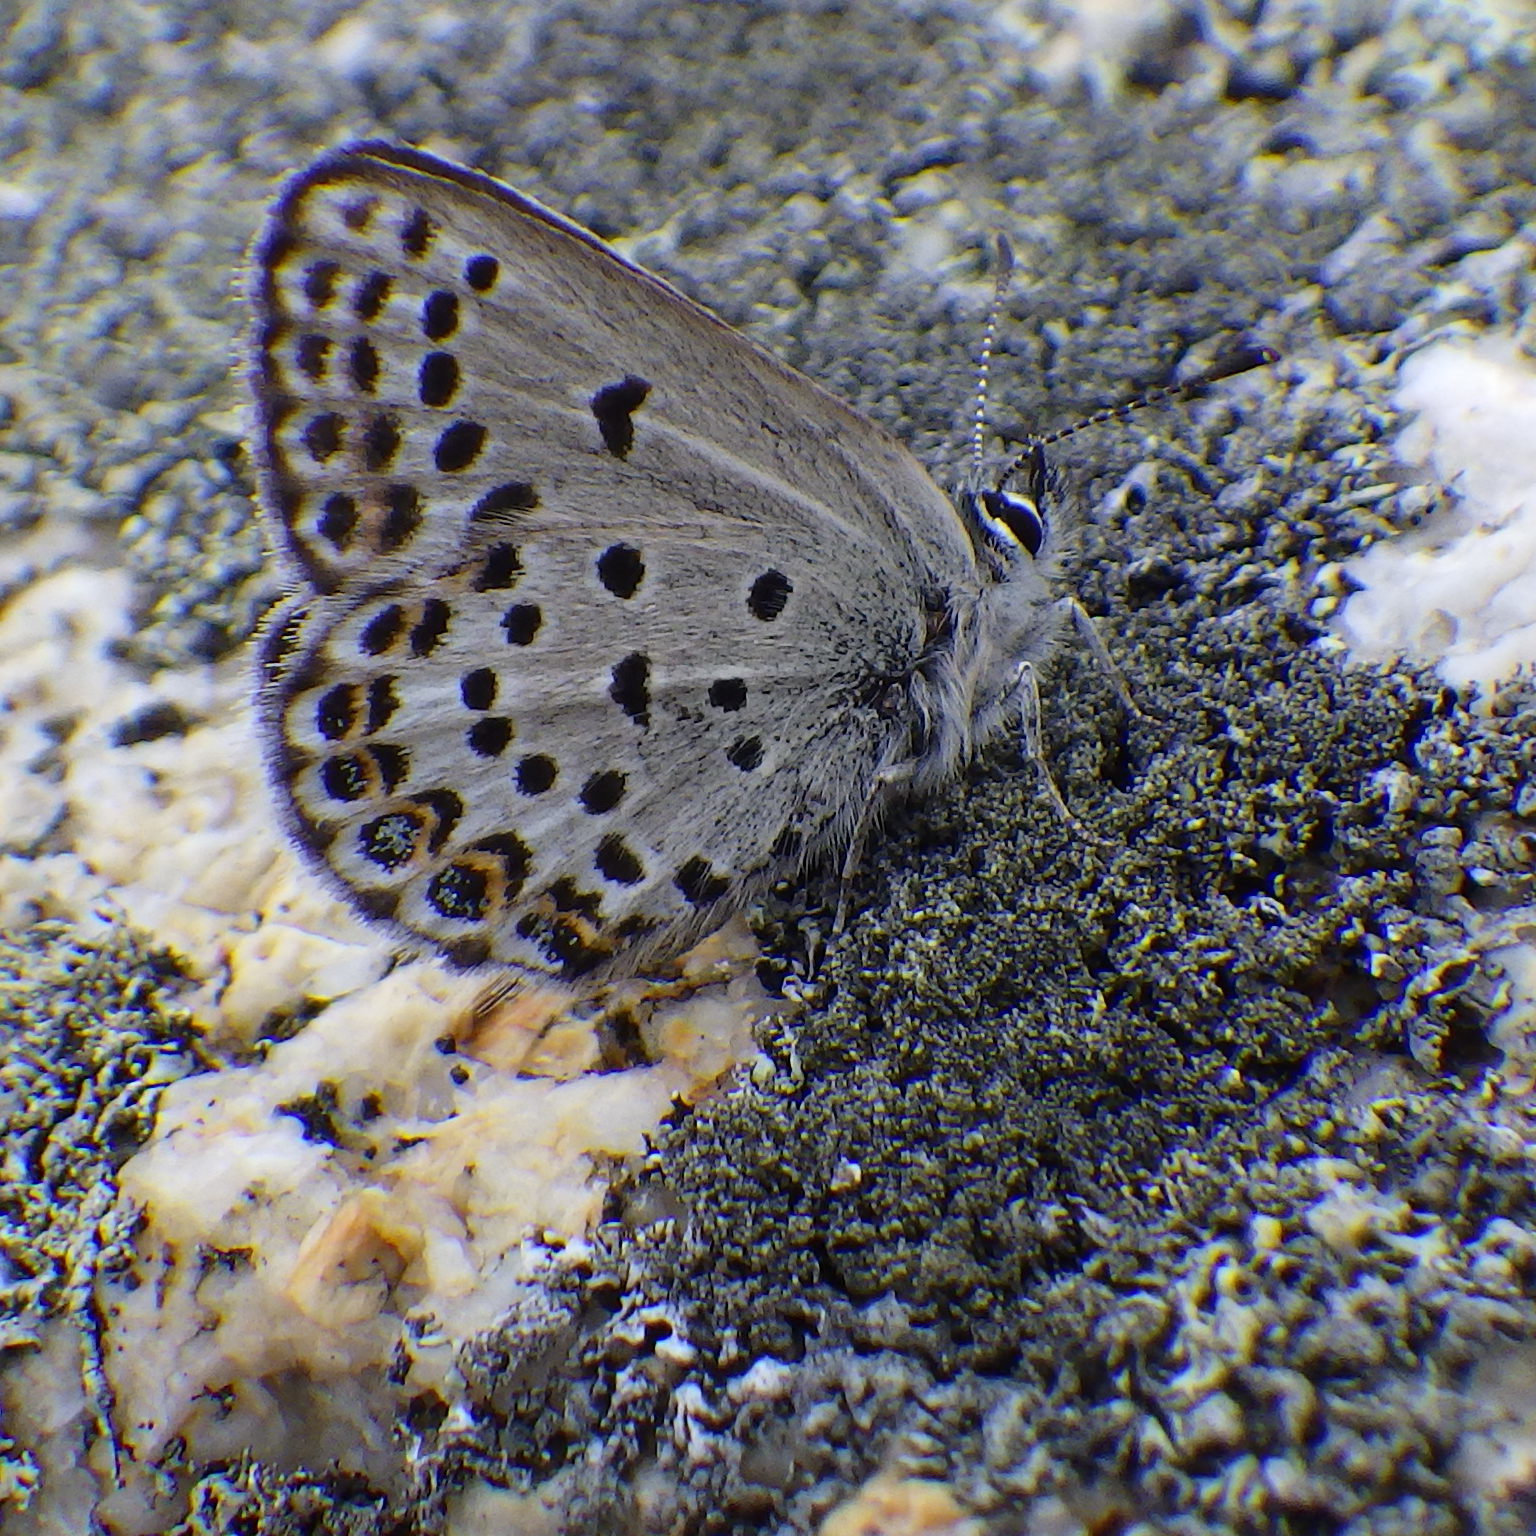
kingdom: Animalia
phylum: Arthropoda
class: Insecta
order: Lepidoptera
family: Lycaenidae
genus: Lycaeides
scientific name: Lycaeides idas
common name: Northern blue
